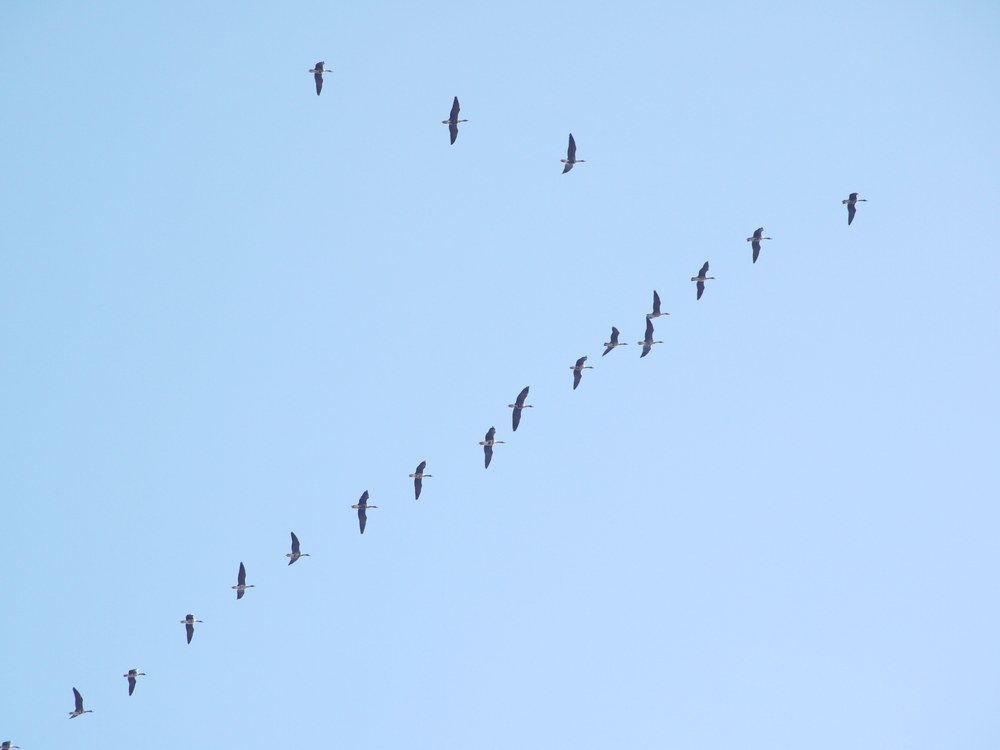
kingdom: Animalia
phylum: Chordata
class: Aves
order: Anseriformes
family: Anatidae
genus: Anser
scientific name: Anser albifrons
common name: Greater white-fronted goose
